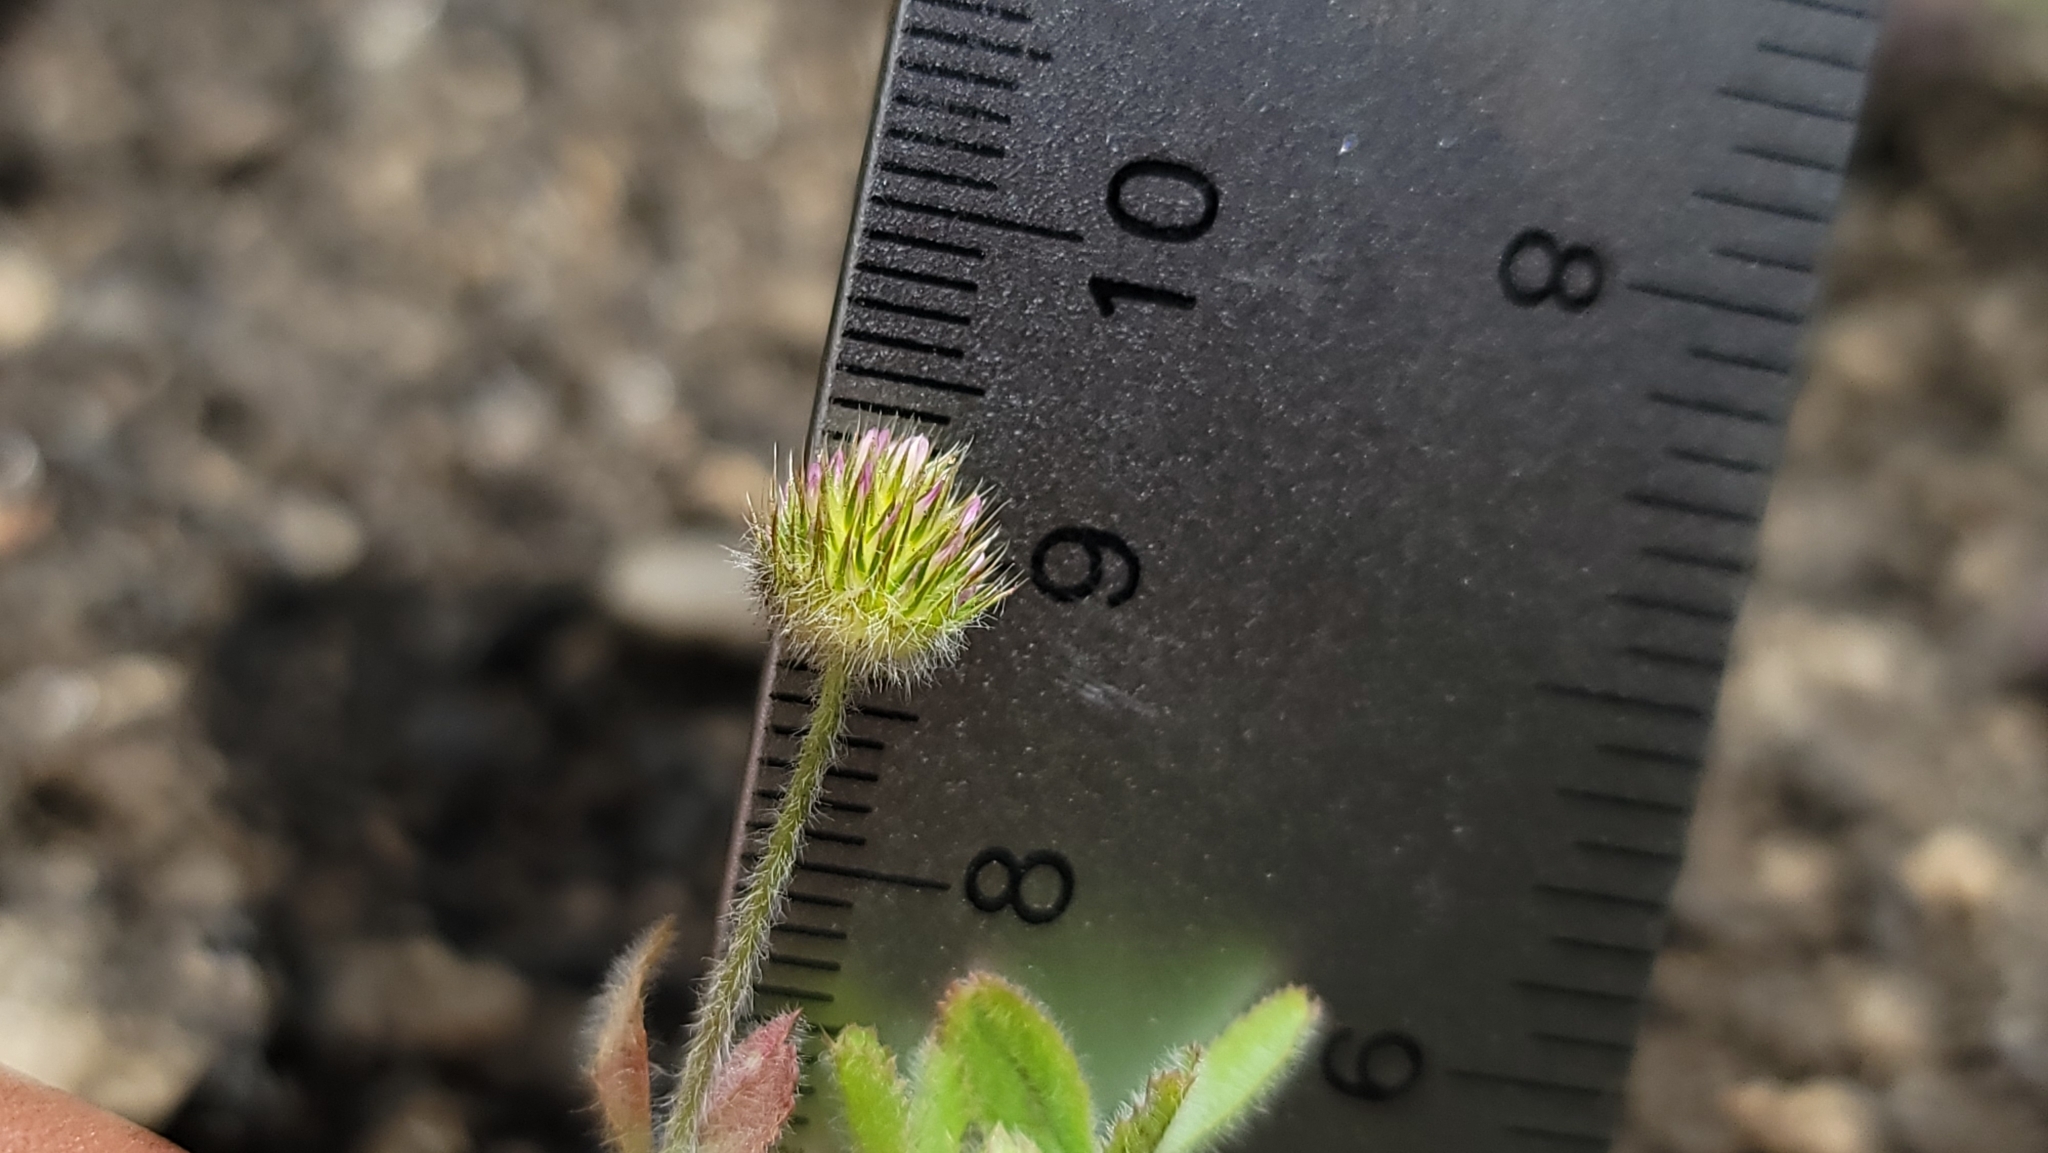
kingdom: Plantae
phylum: Tracheophyta
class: Magnoliopsida
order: Fabales
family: Fabaceae
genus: Trifolium
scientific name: Trifolium microcephalum
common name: Maiden clover
